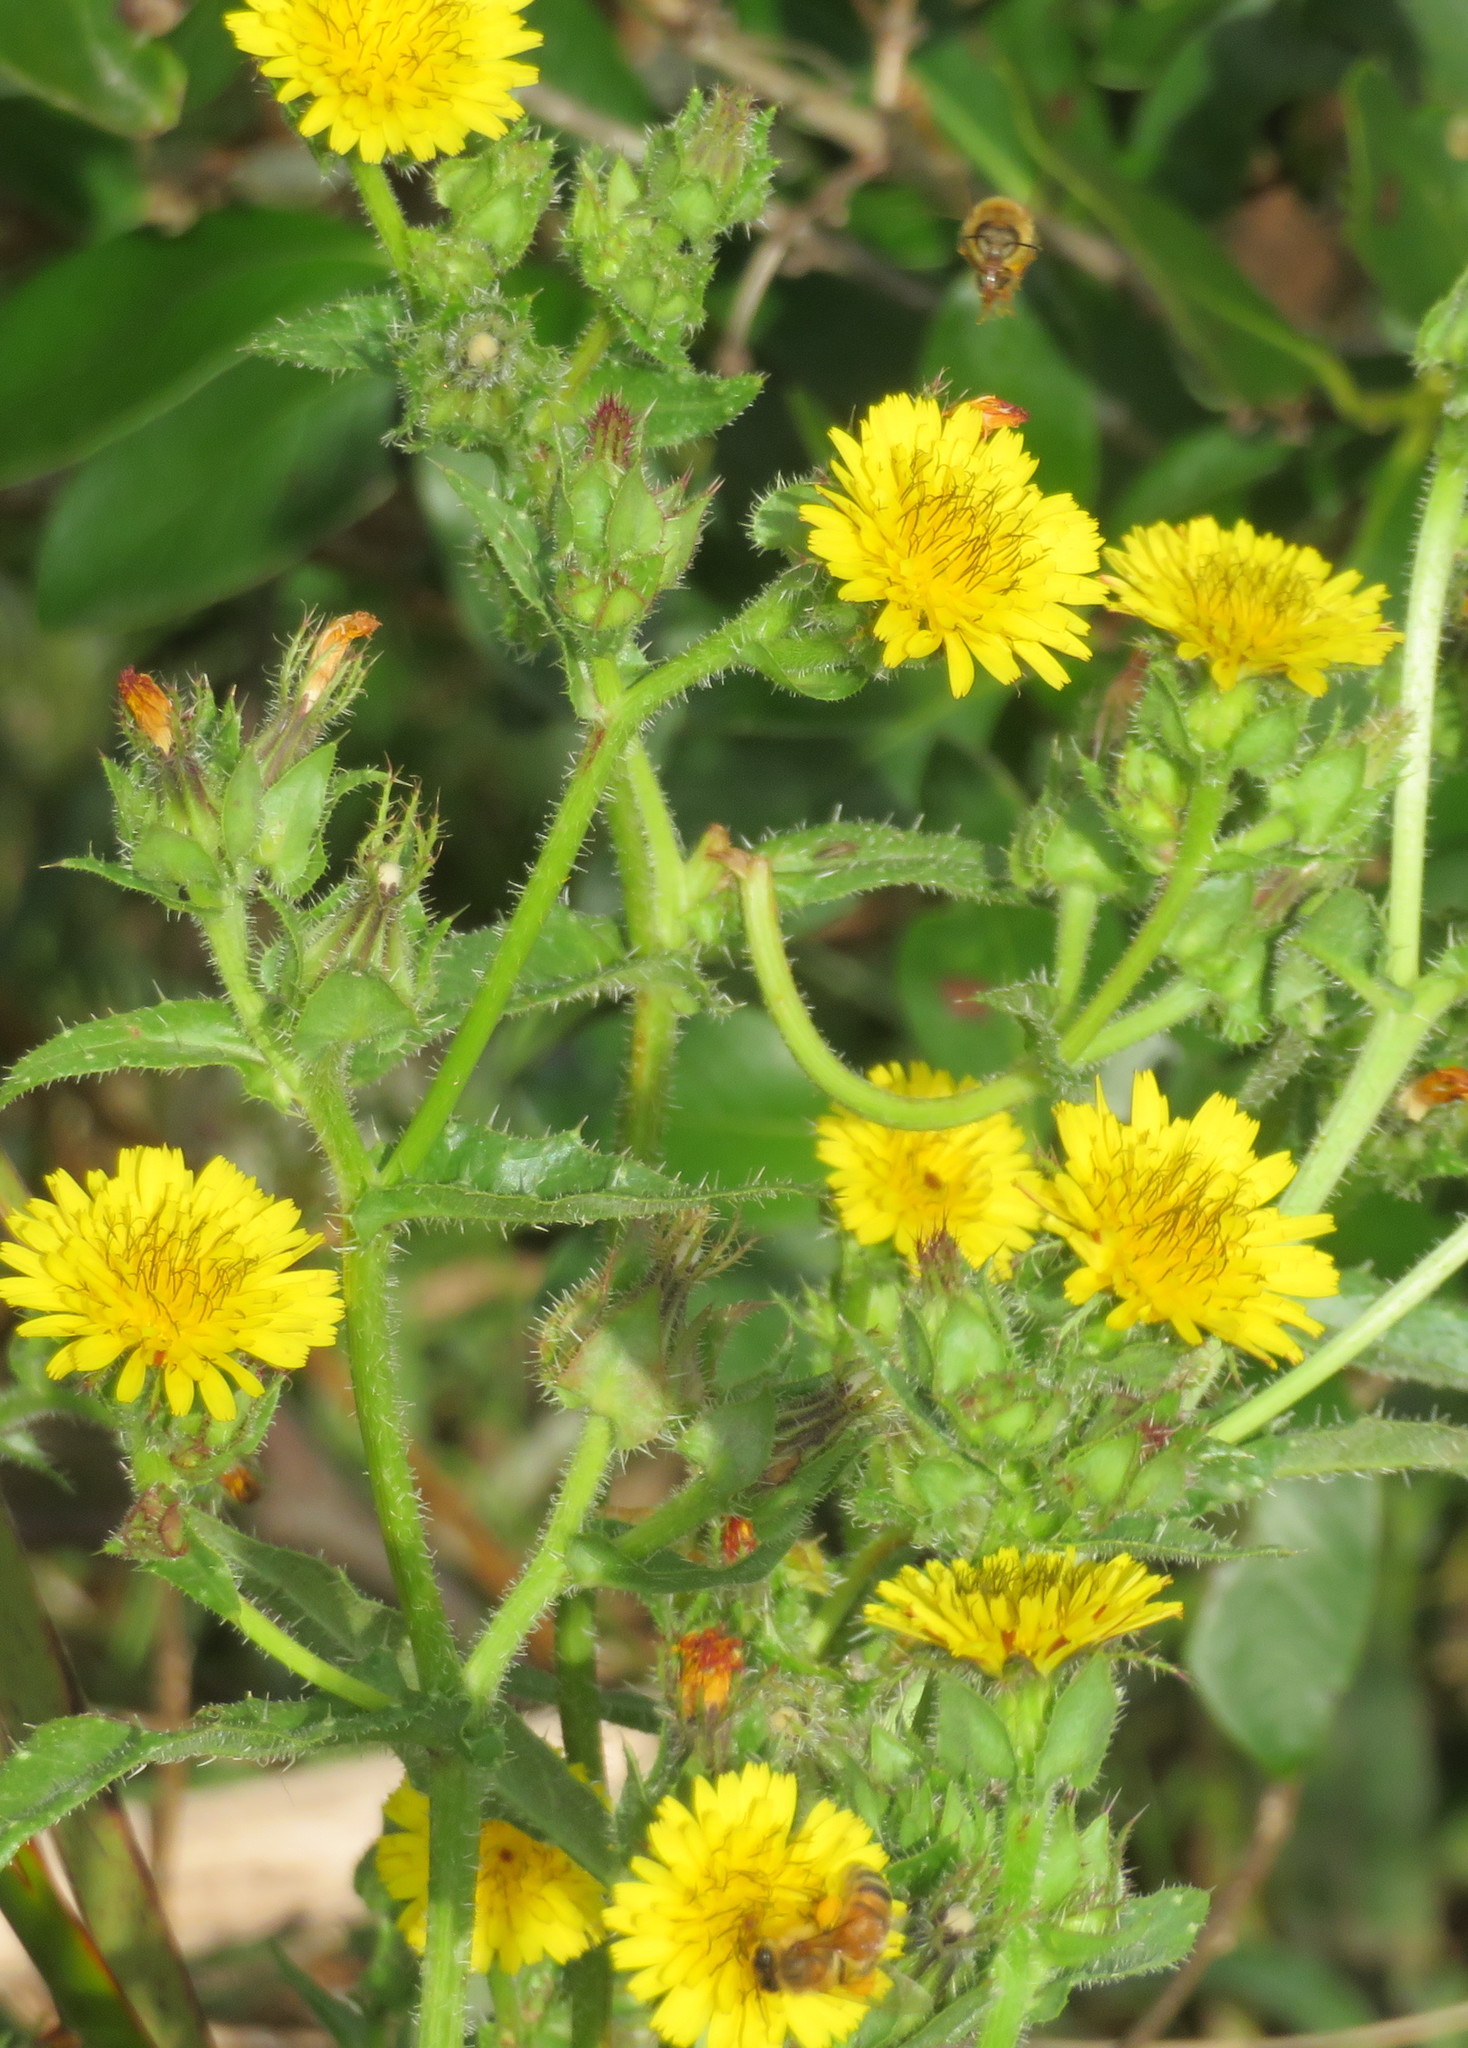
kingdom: Animalia
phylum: Arthropoda
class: Insecta
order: Hymenoptera
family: Apidae
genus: Apis
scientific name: Apis mellifera
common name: Honey bee
